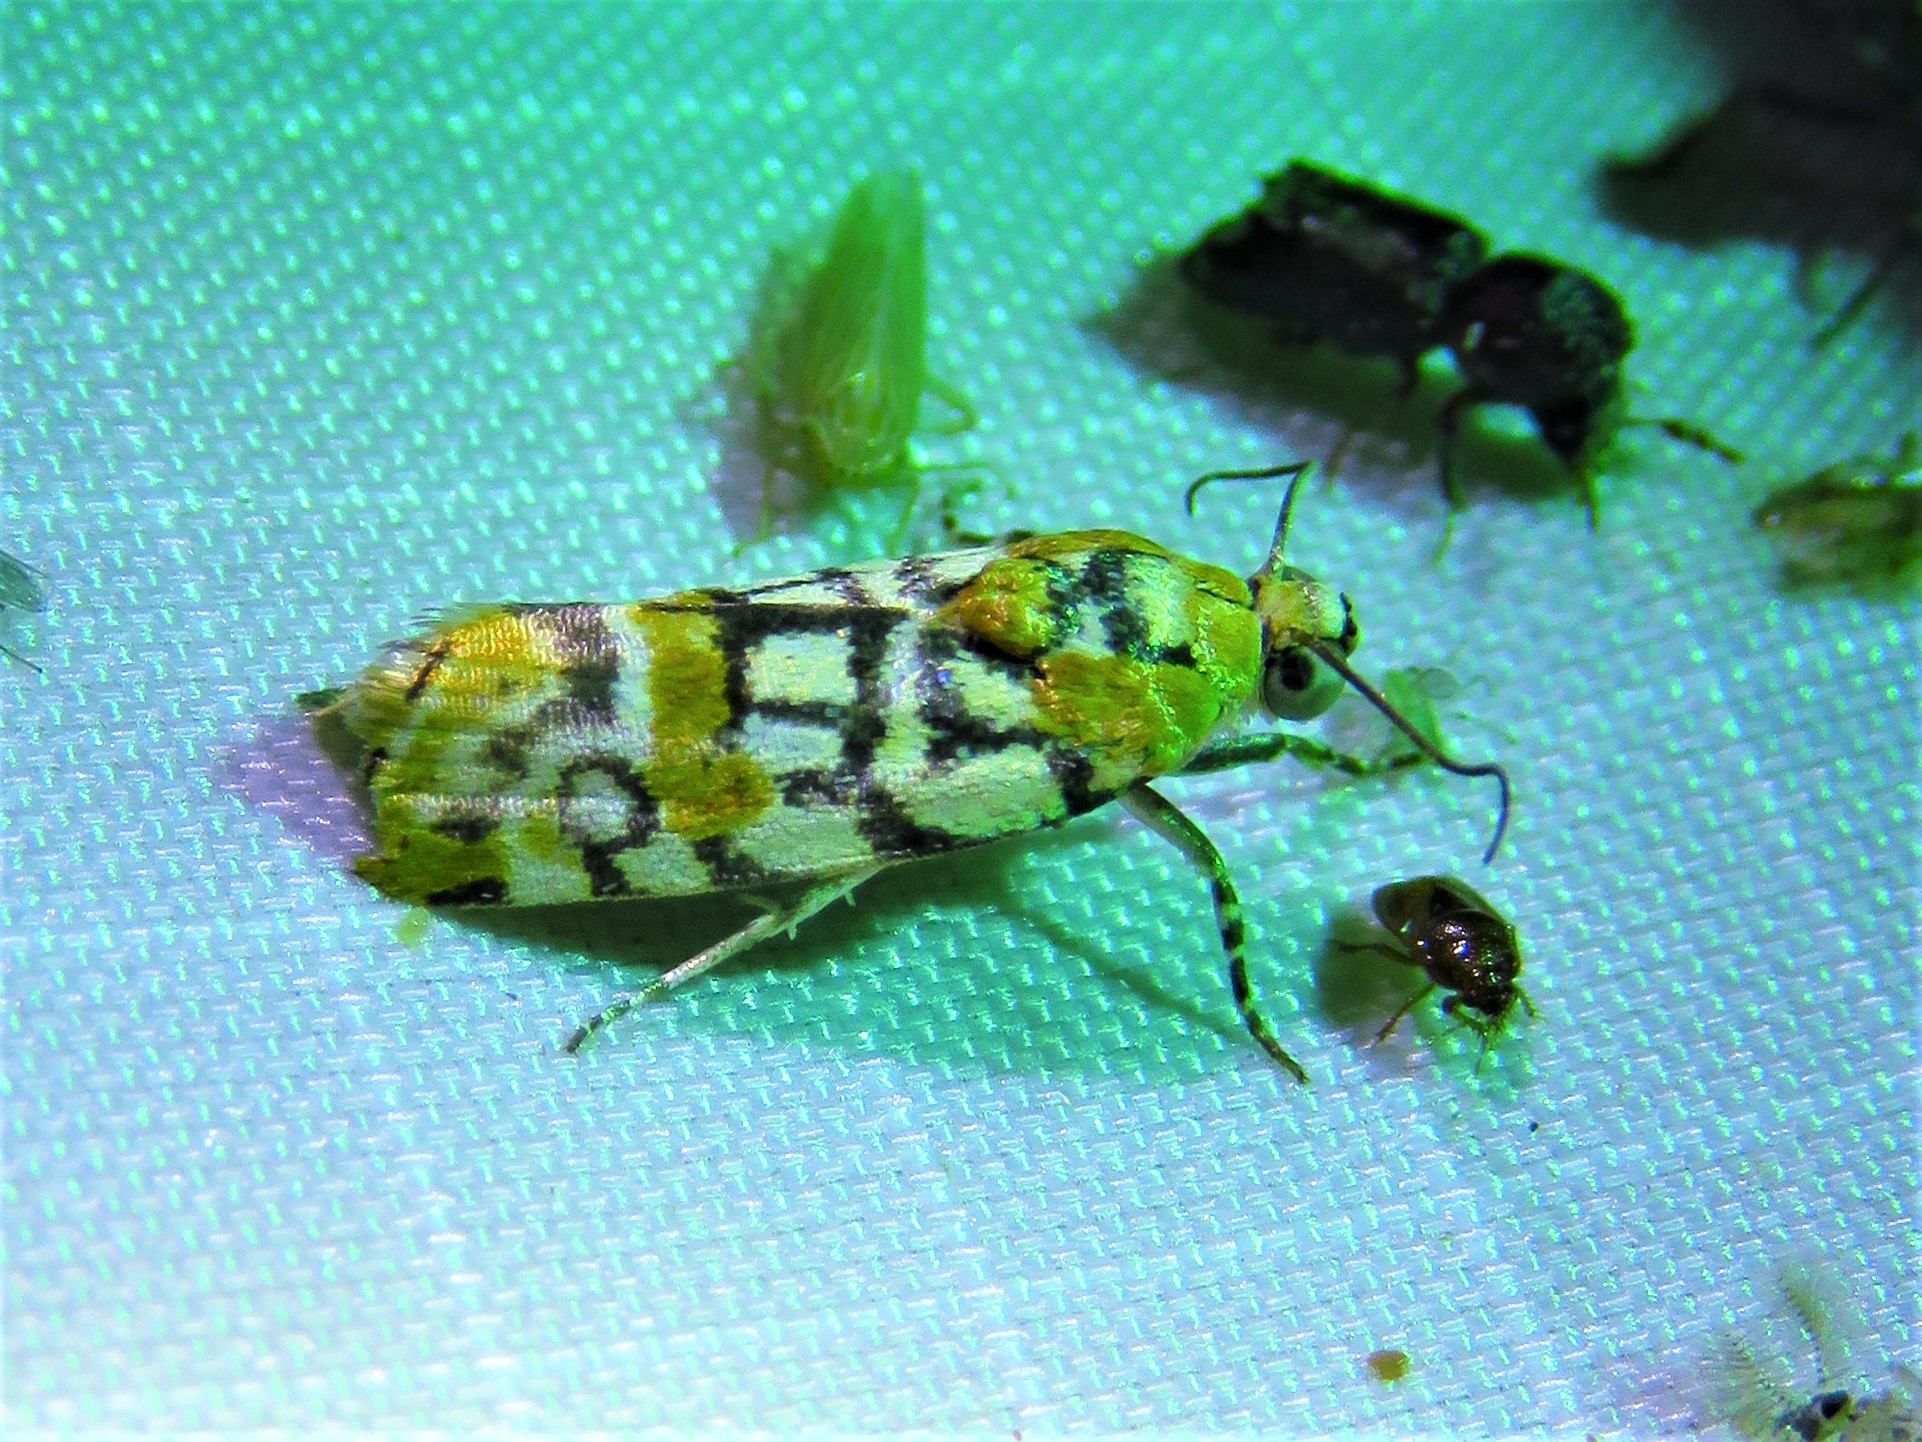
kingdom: Animalia
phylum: Arthropoda
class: Insecta
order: Lepidoptera
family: Noctuidae
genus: Spragueia
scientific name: Spragueia guttata
